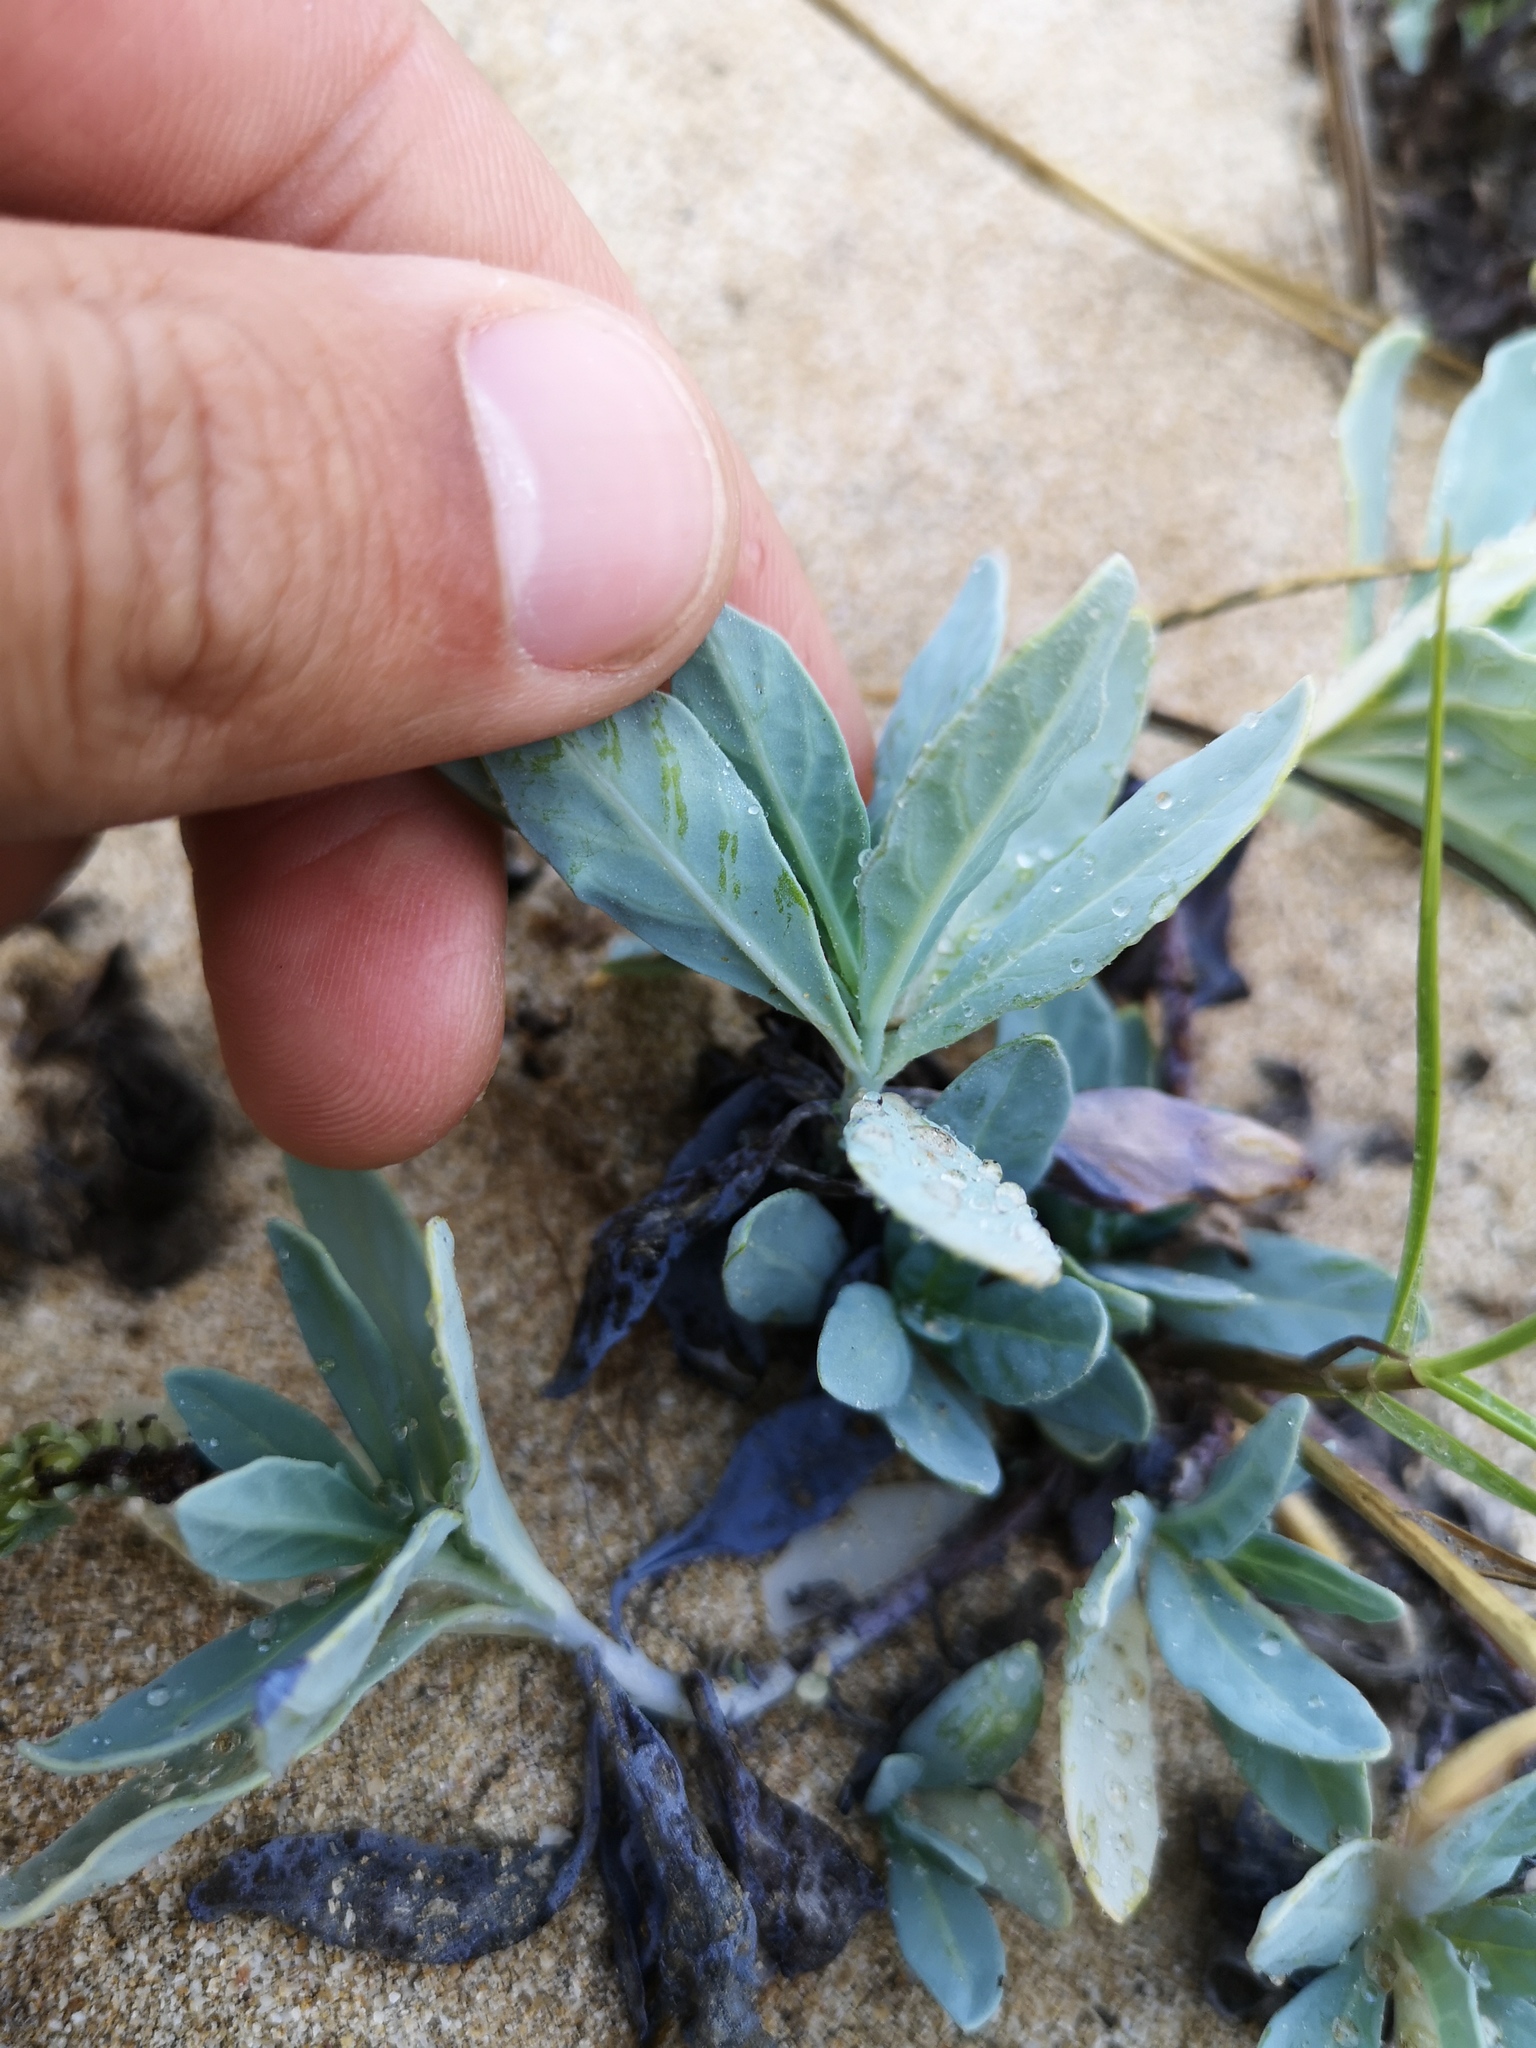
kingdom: Plantae
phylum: Tracheophyta
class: Magnoliopsida
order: Boraginales
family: Heliotropiaceae
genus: Heliotropium
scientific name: Heliotropium curassavicum
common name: Seaside heliotrope
